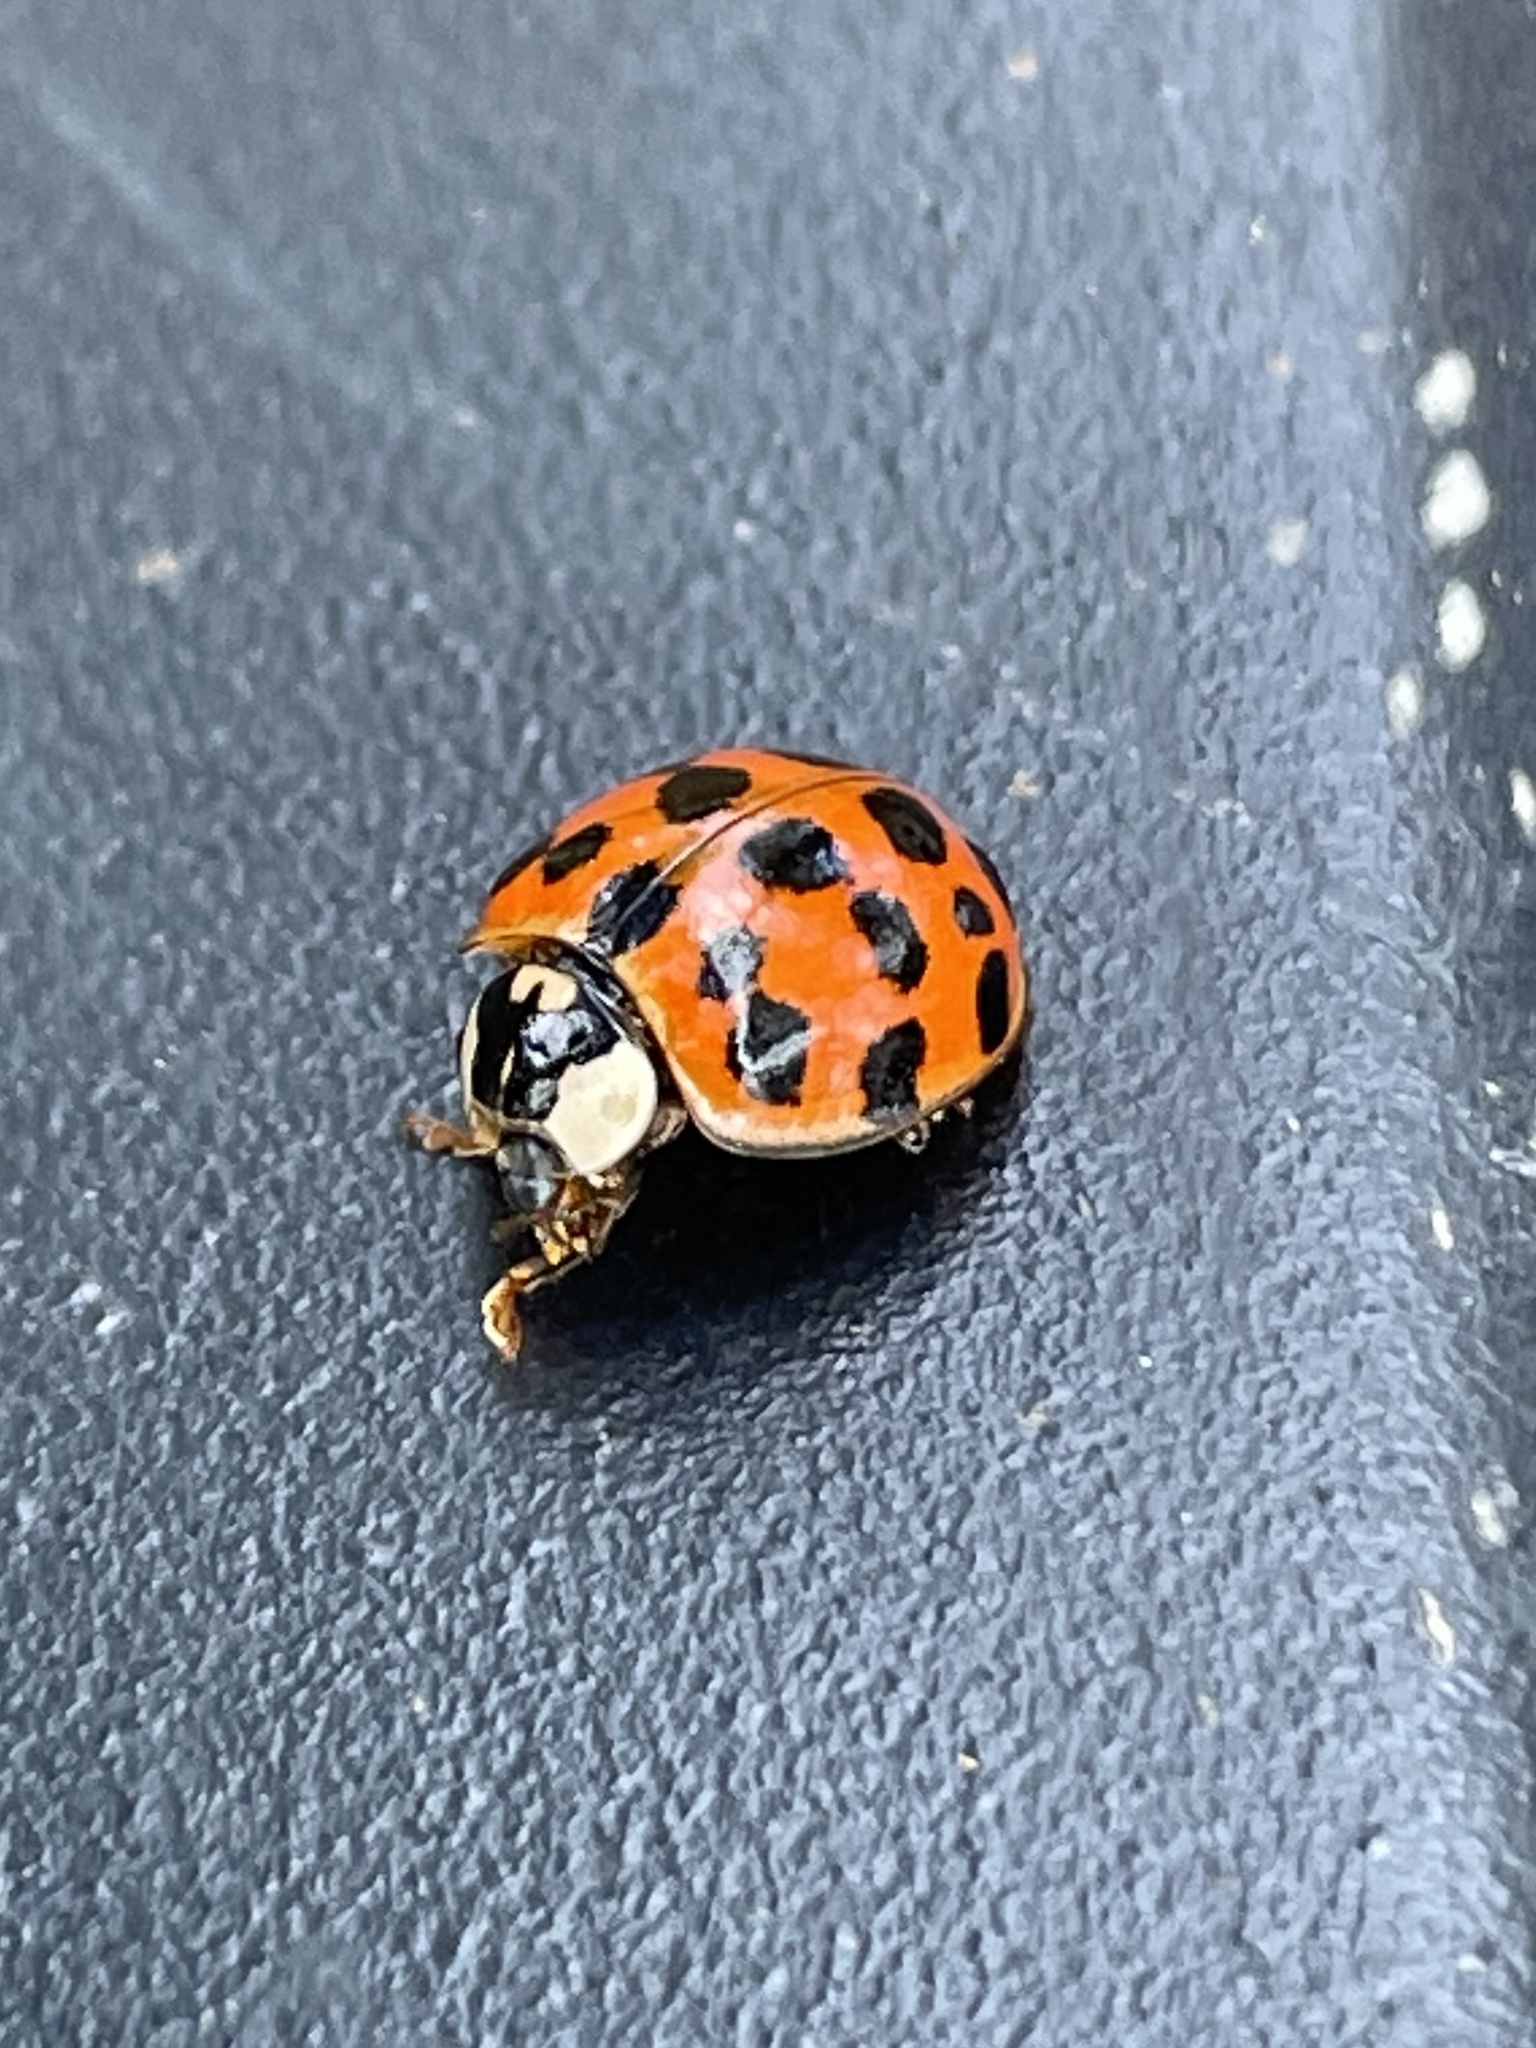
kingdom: Animalia
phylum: Arthropoda
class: Insecta
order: Coleoptera
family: Coccinellidae
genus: Harmonia
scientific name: Harmonia axyridis
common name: Harlequin ladybird
